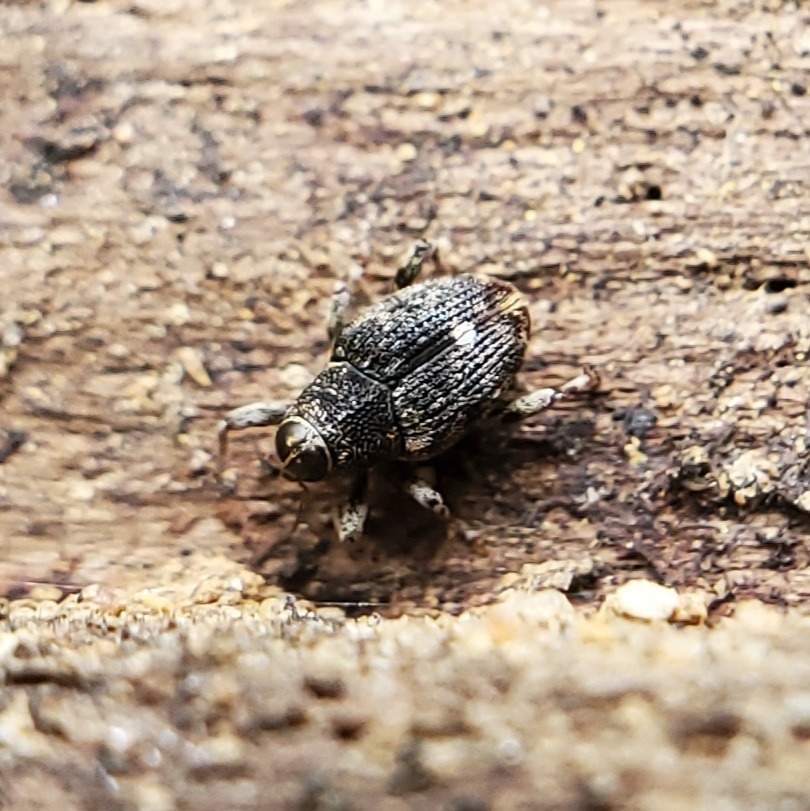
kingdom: Animalia
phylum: Arthropoda
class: Insecta
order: Coleoptera
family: Curculionidae
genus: Lechriops
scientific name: Lechriops oculatus
